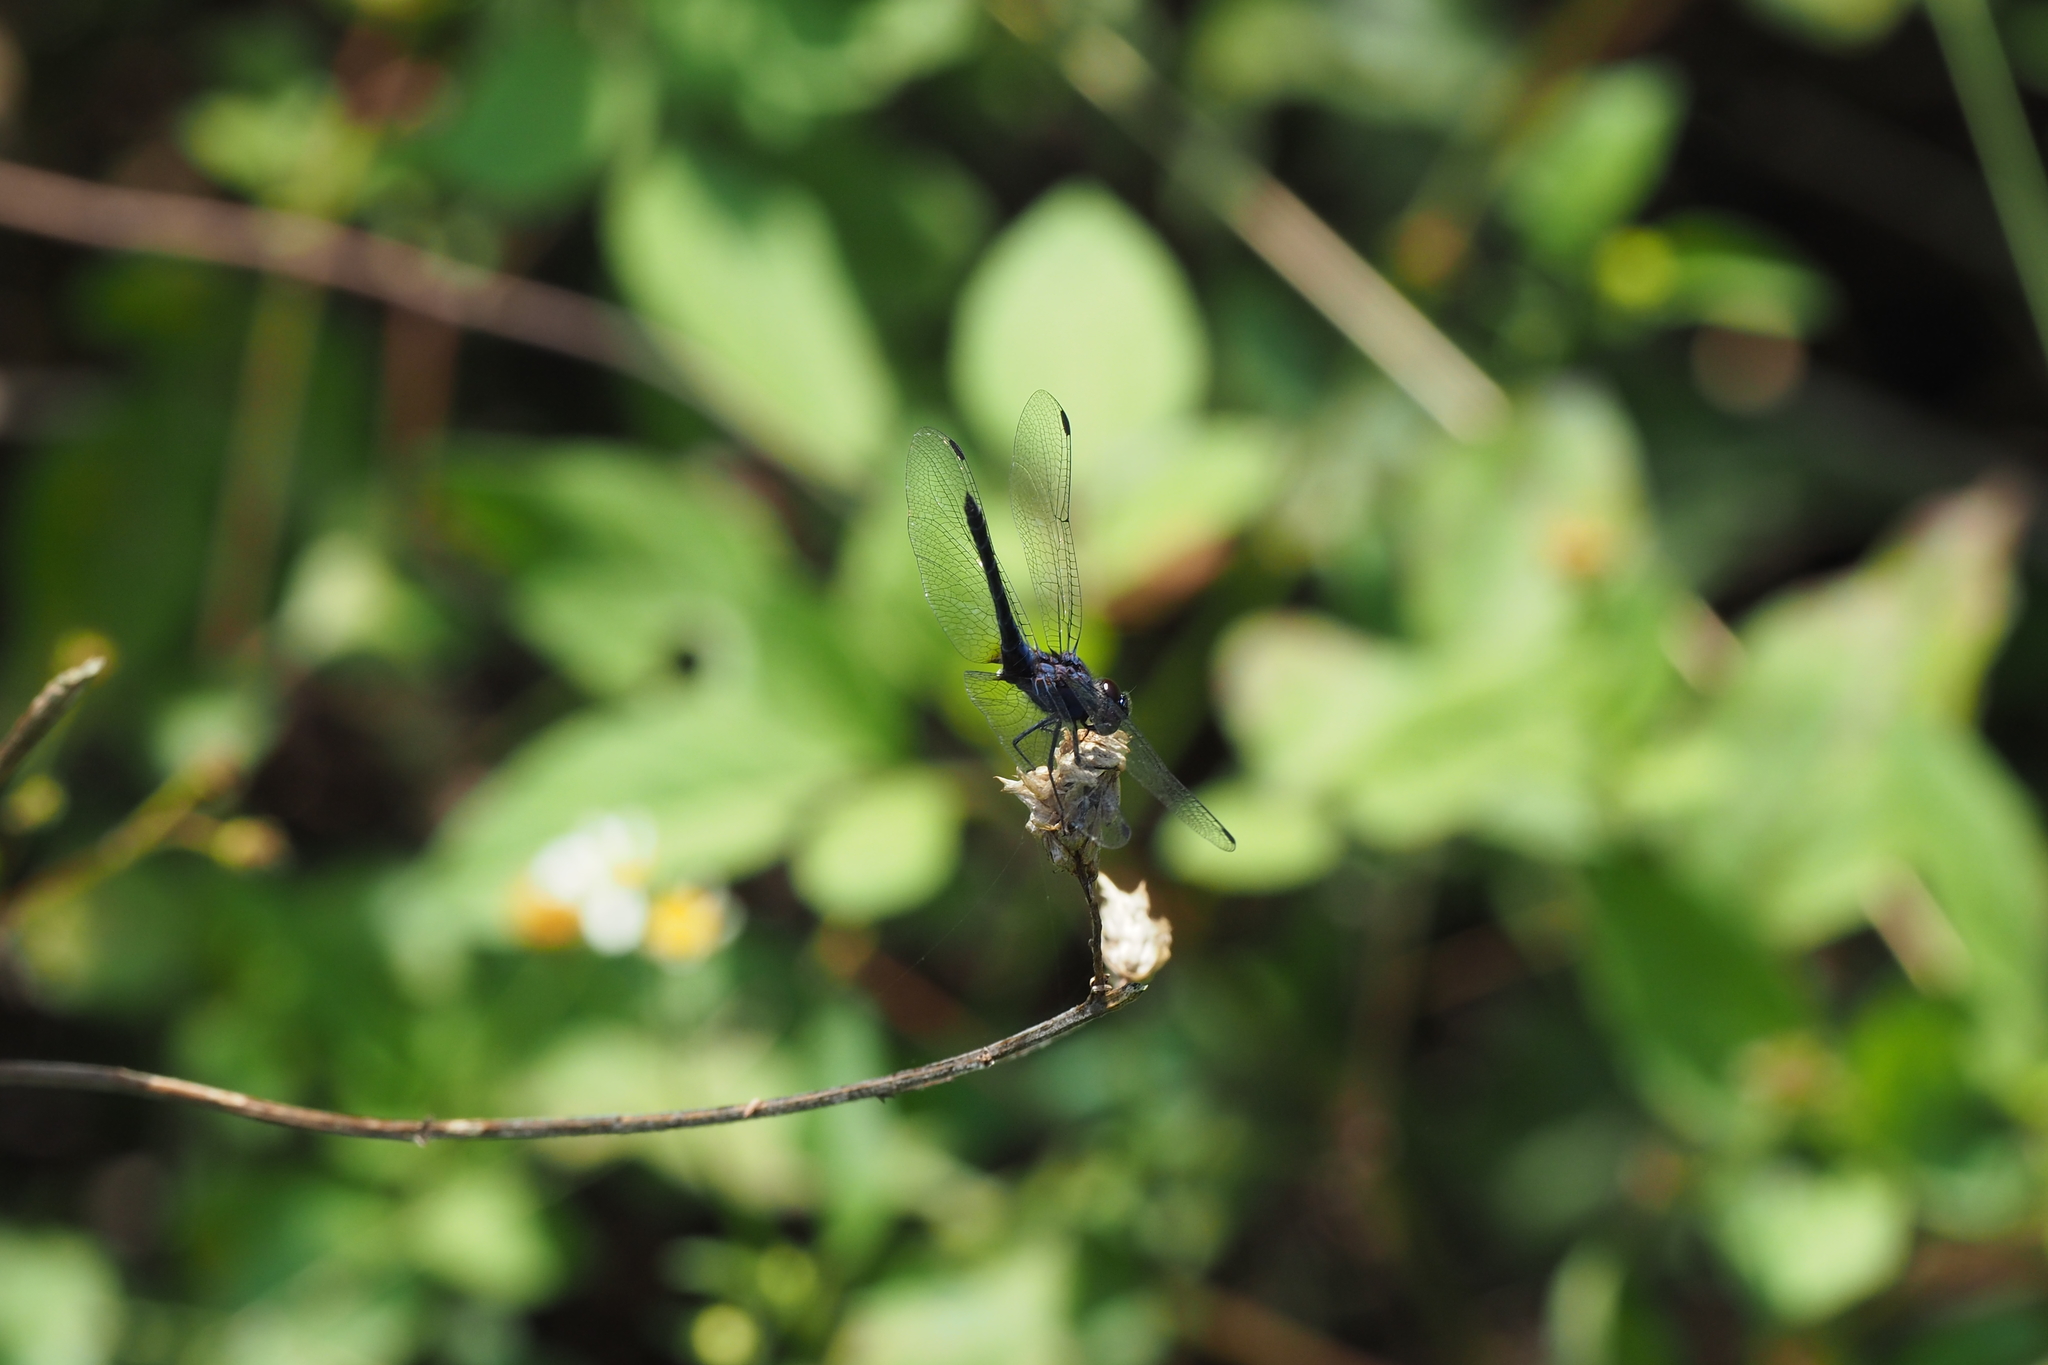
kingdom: Animalia
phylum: Arthropoda
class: Insecta
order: Odonata
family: Libellulidae
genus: Trithemis
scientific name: Trithemis festiva
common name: Indigo dropwing
